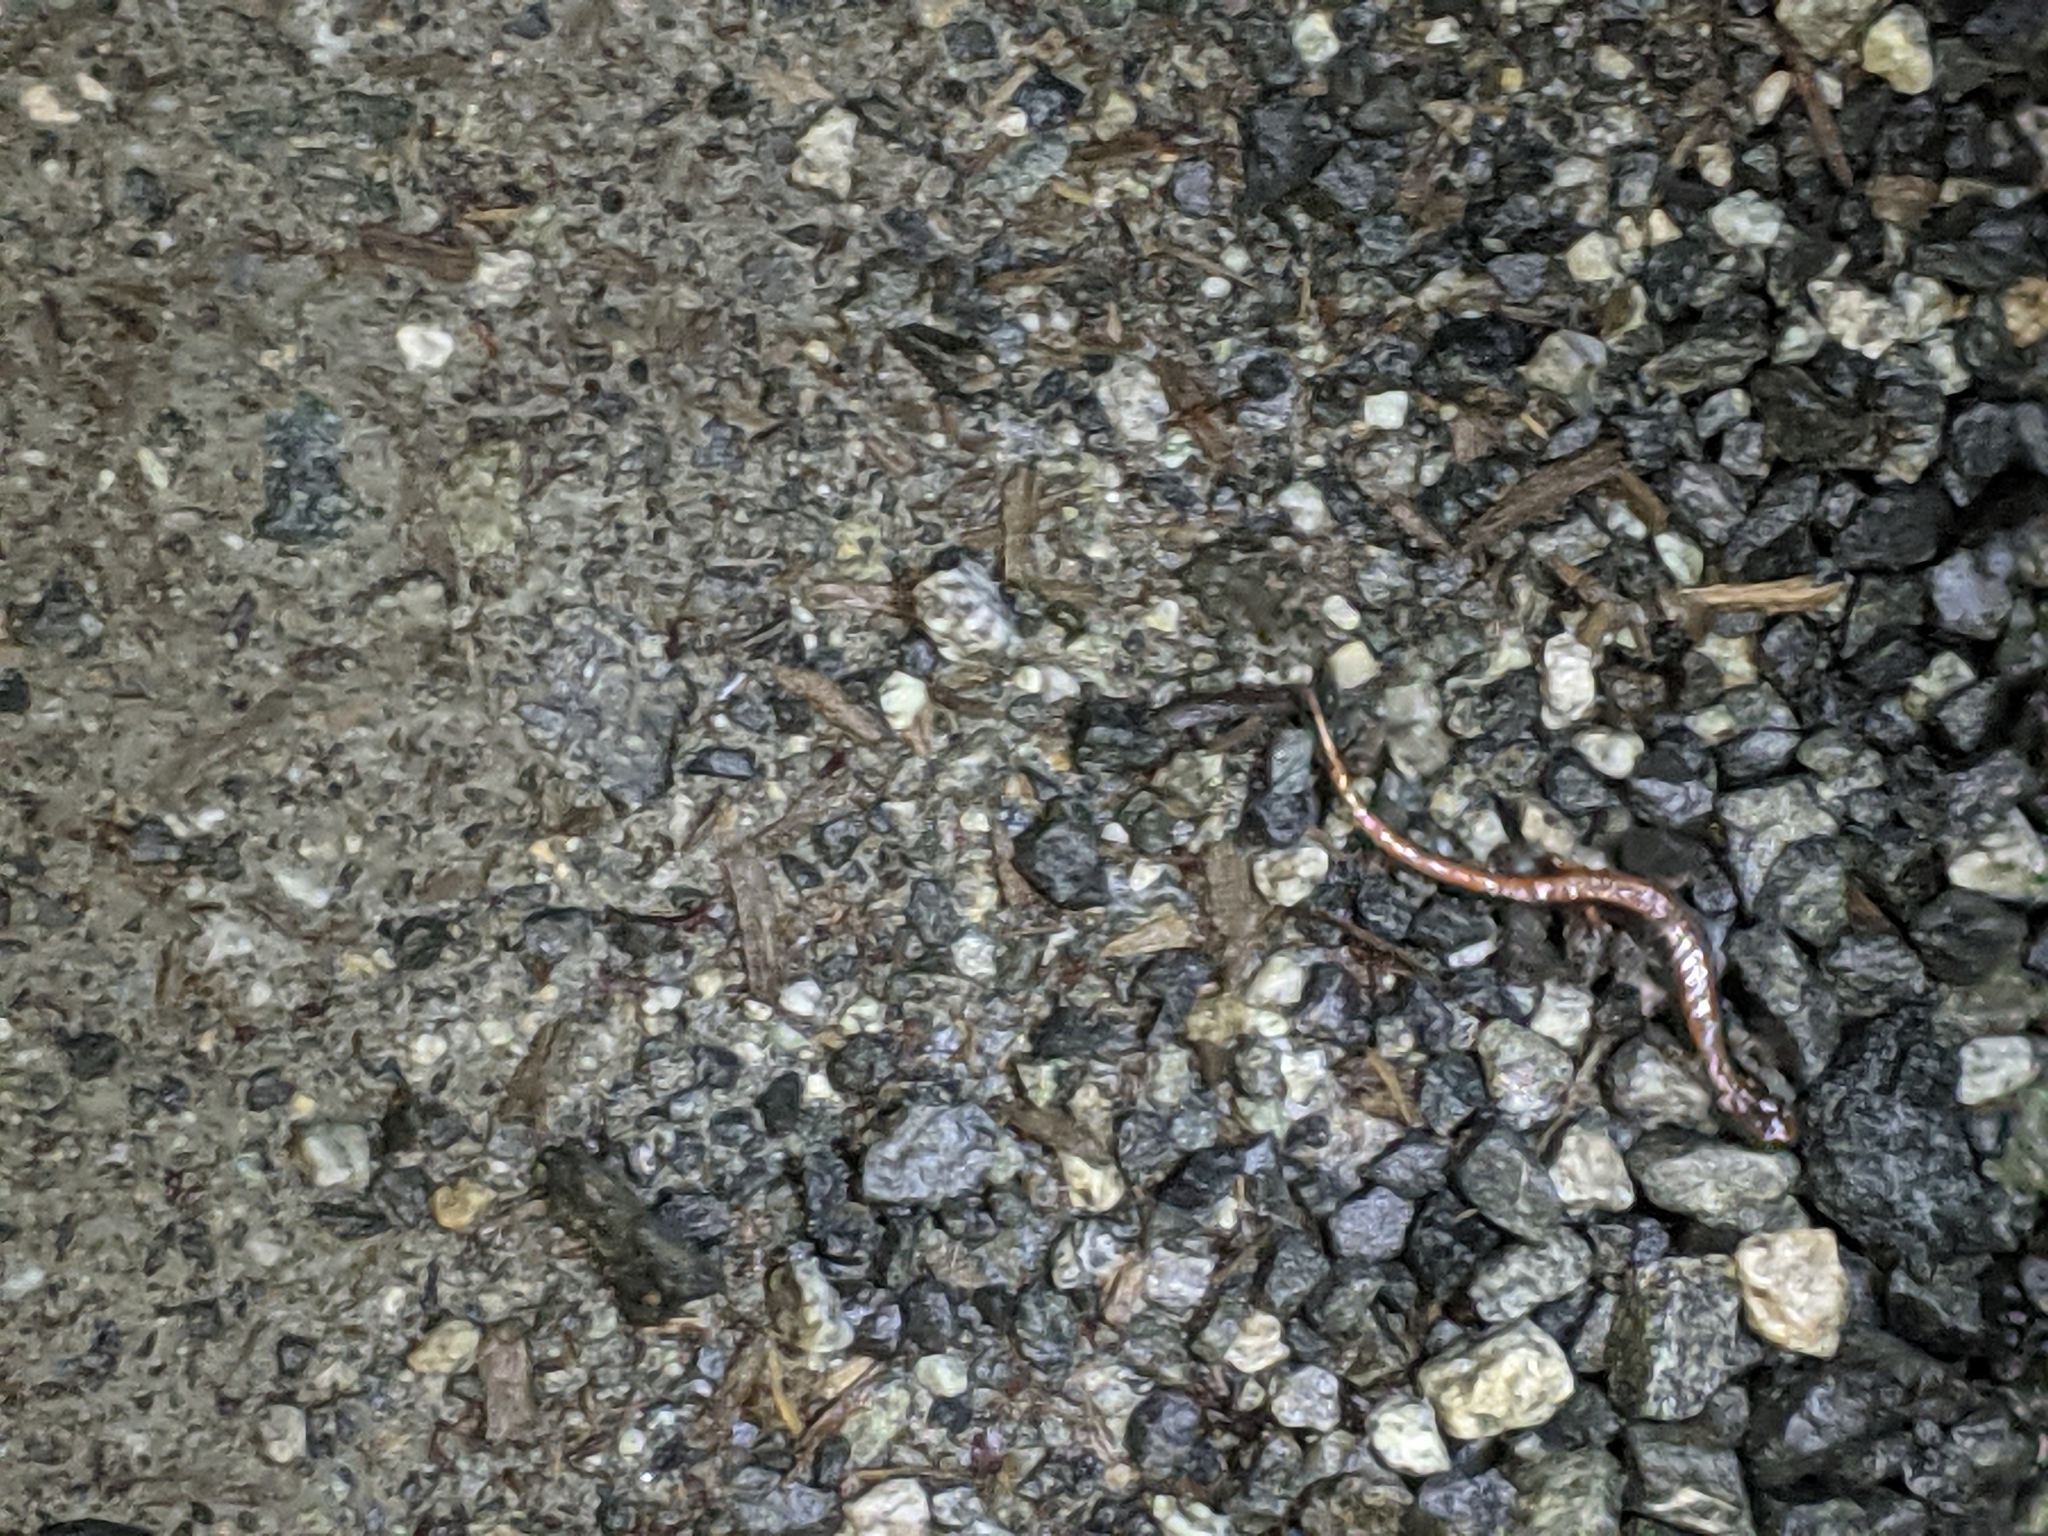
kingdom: Animalia
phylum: Chordata
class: Amphibia
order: Caudata
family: Plethodontidae
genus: Plethodon
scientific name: Plethodon vehiculum
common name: Western red-backed salamander
